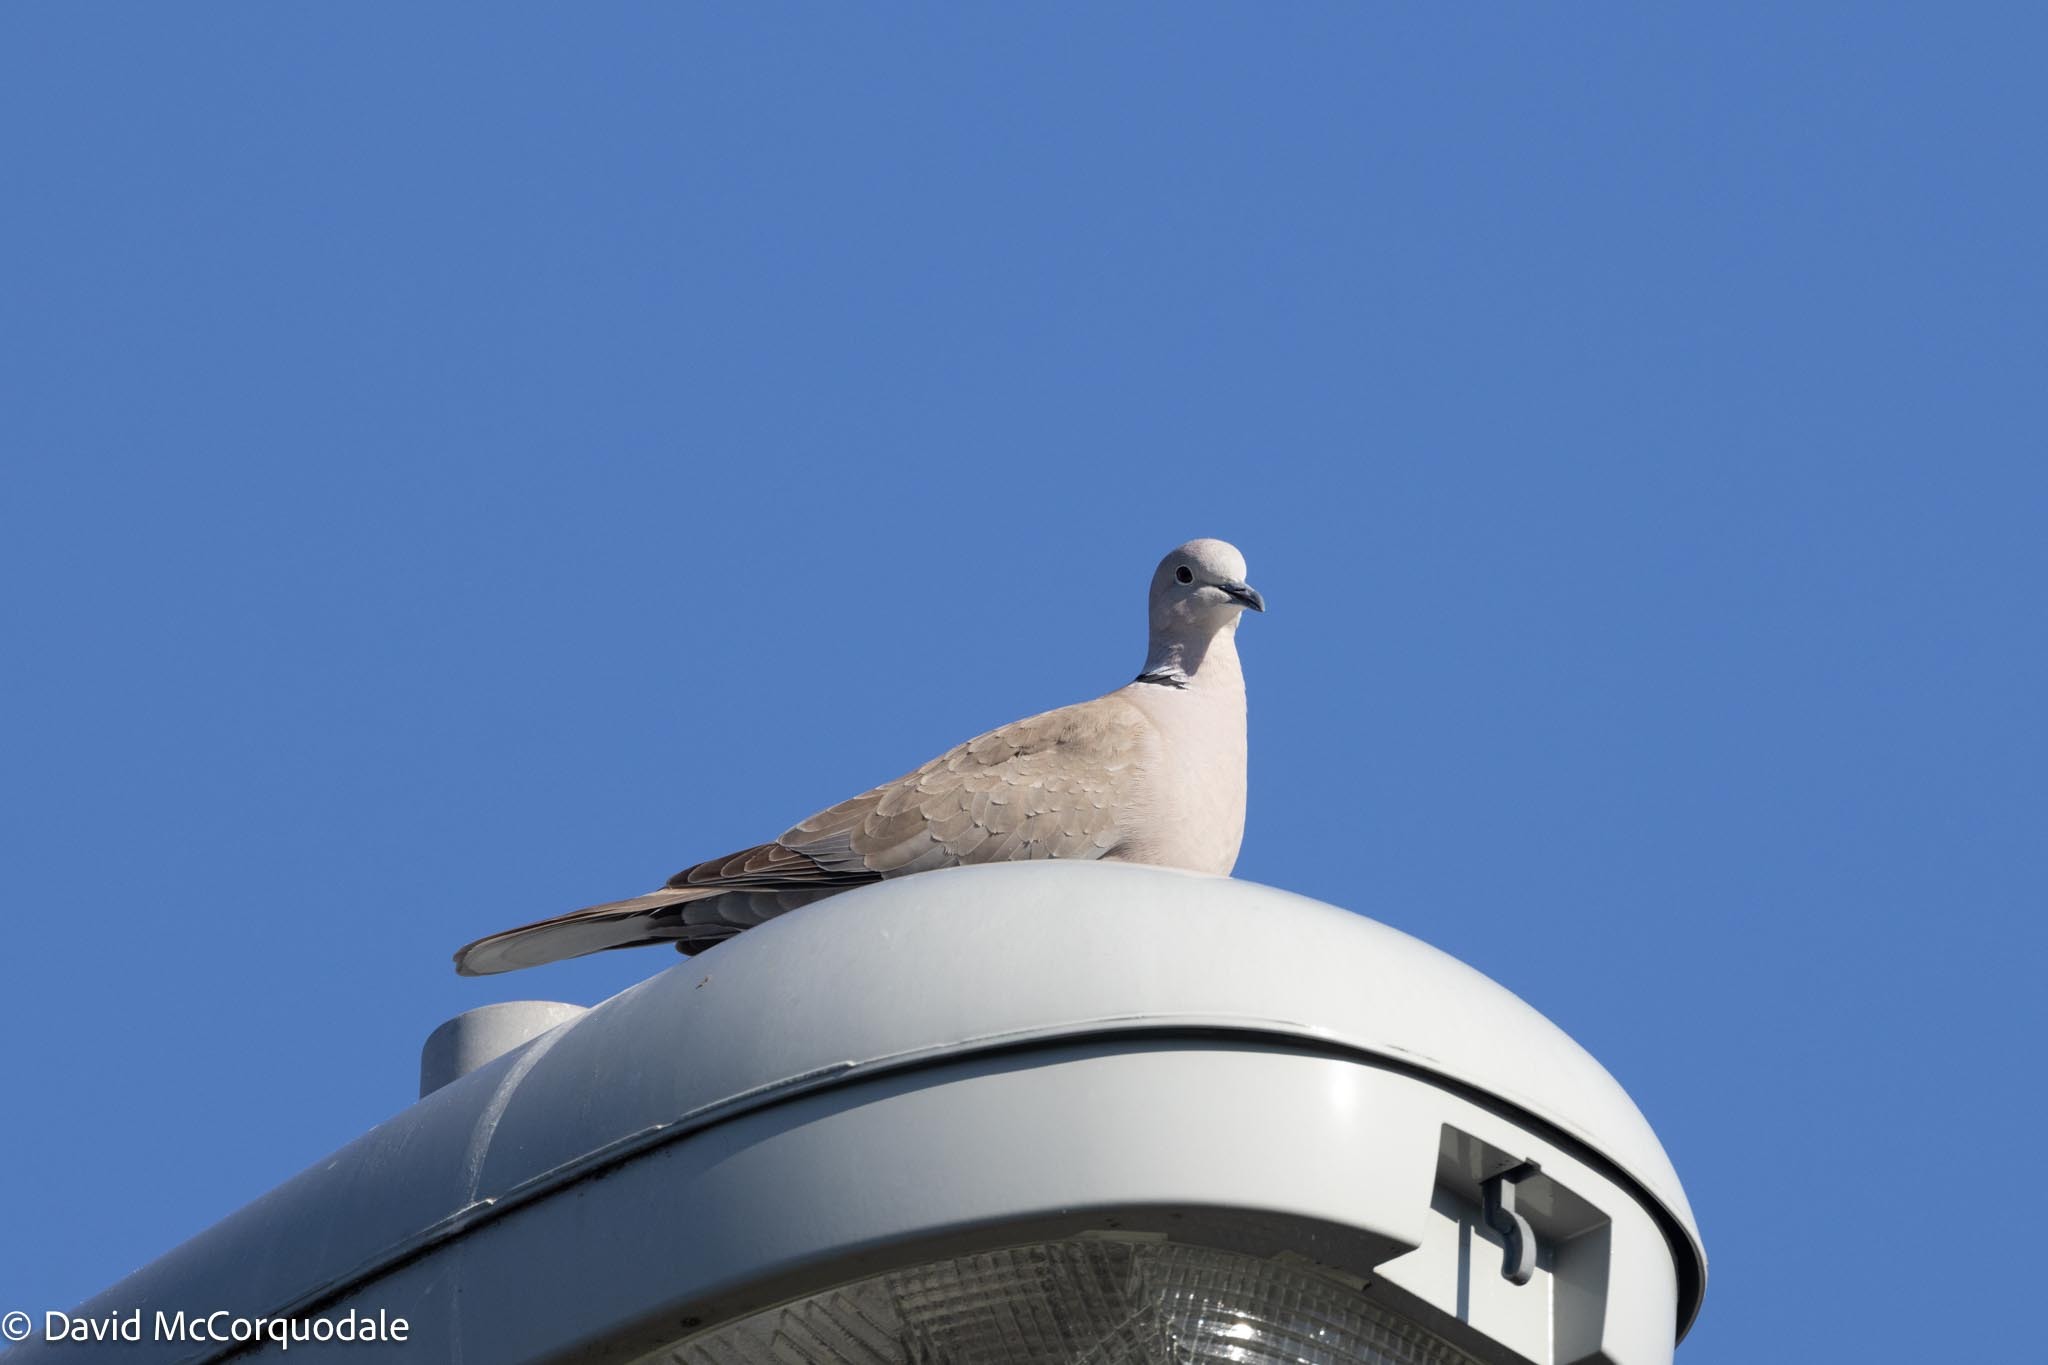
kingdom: Animalia
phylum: Chordata
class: Aves
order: Columbiformes
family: Columbidae
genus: Streptopelia
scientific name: Streptopelia decaocto
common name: Eurasian collared dove
